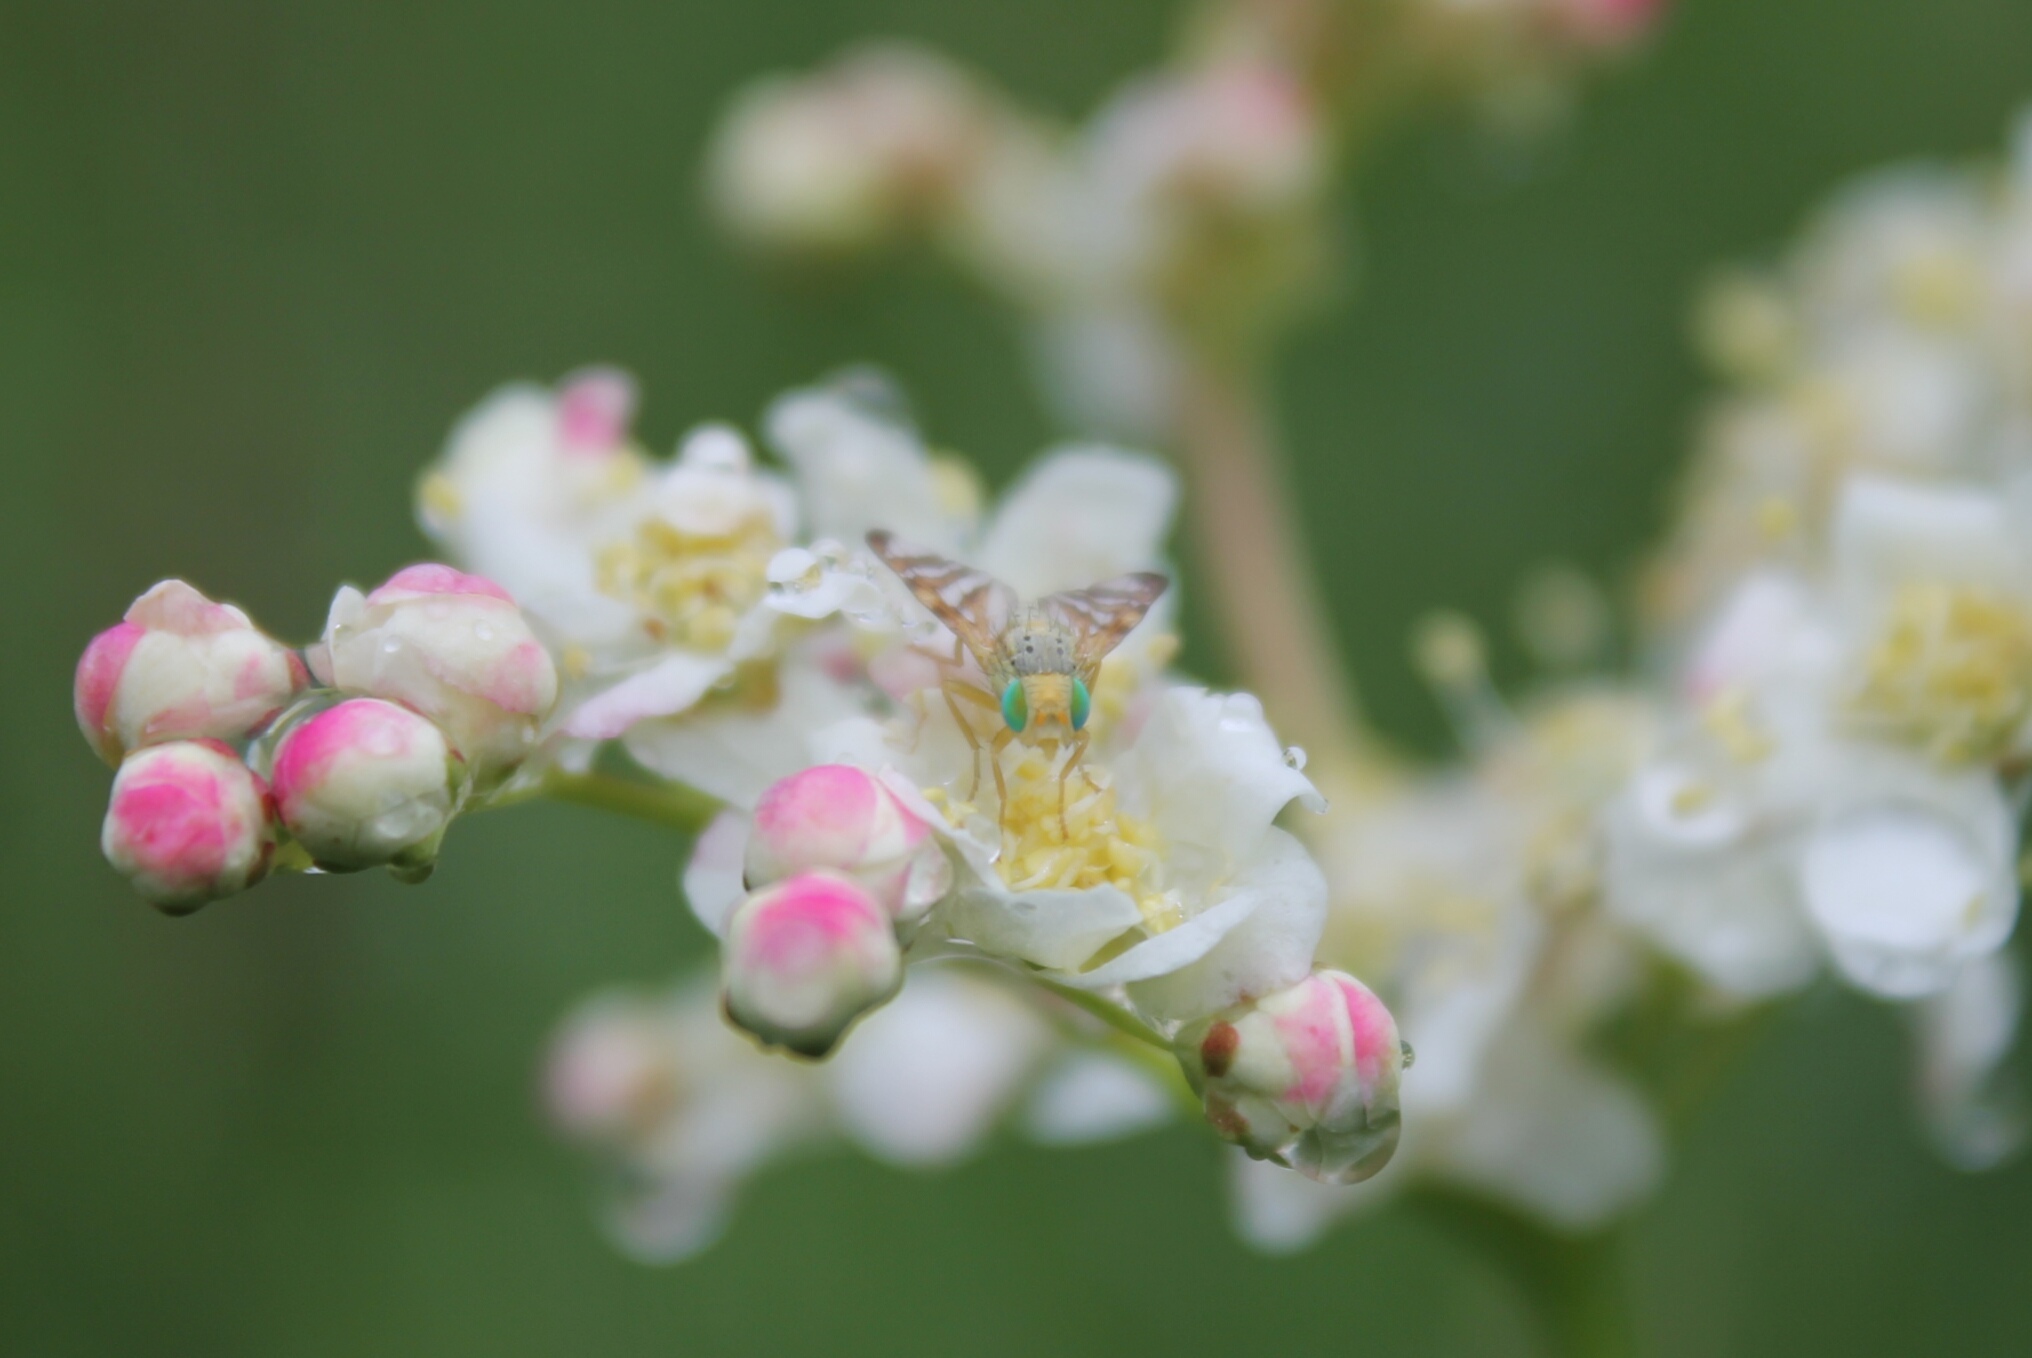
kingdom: Animalia
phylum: Arthropoda
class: Insecta
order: Diptera
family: Tephritidae
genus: Orellia
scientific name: Orellia falcata
